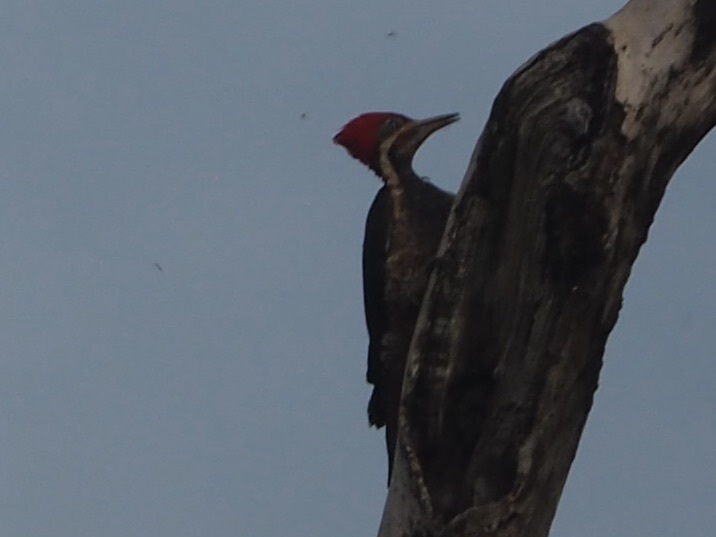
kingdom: Animalia
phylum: Chordata
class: Aves
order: Piciformes
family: Picidae
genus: Dryocopus
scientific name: Dryocopus lineatus
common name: Lineated woodpecker
